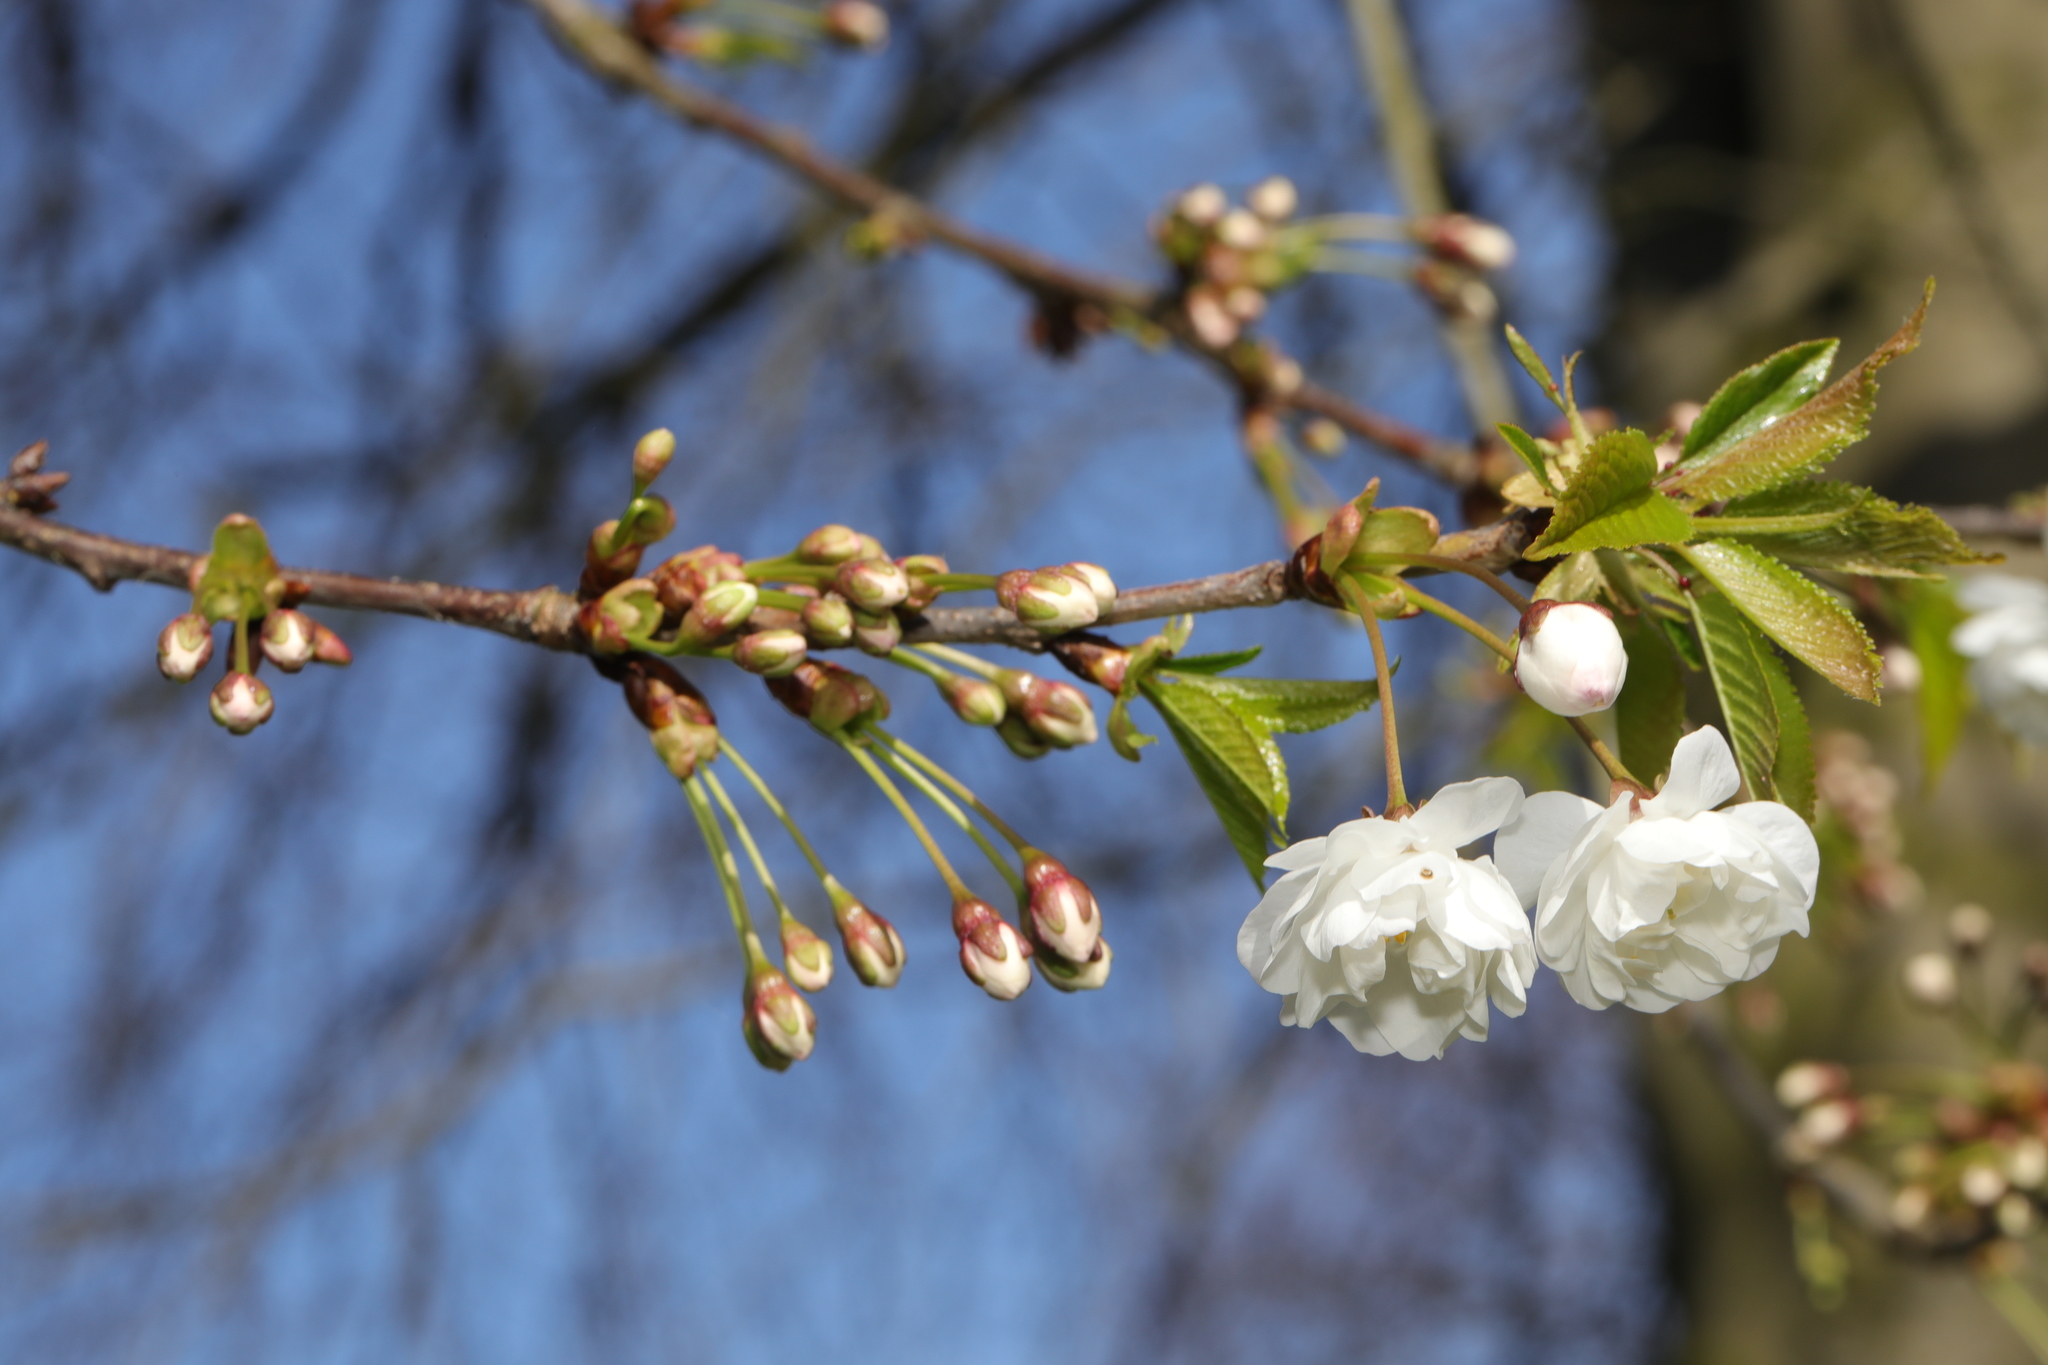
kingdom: Plantae
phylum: Tracheophyta
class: Magnoliopsida
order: Rosales
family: Rosaceae
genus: Prunus
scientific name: Prunus avium
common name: Sweet cherry
